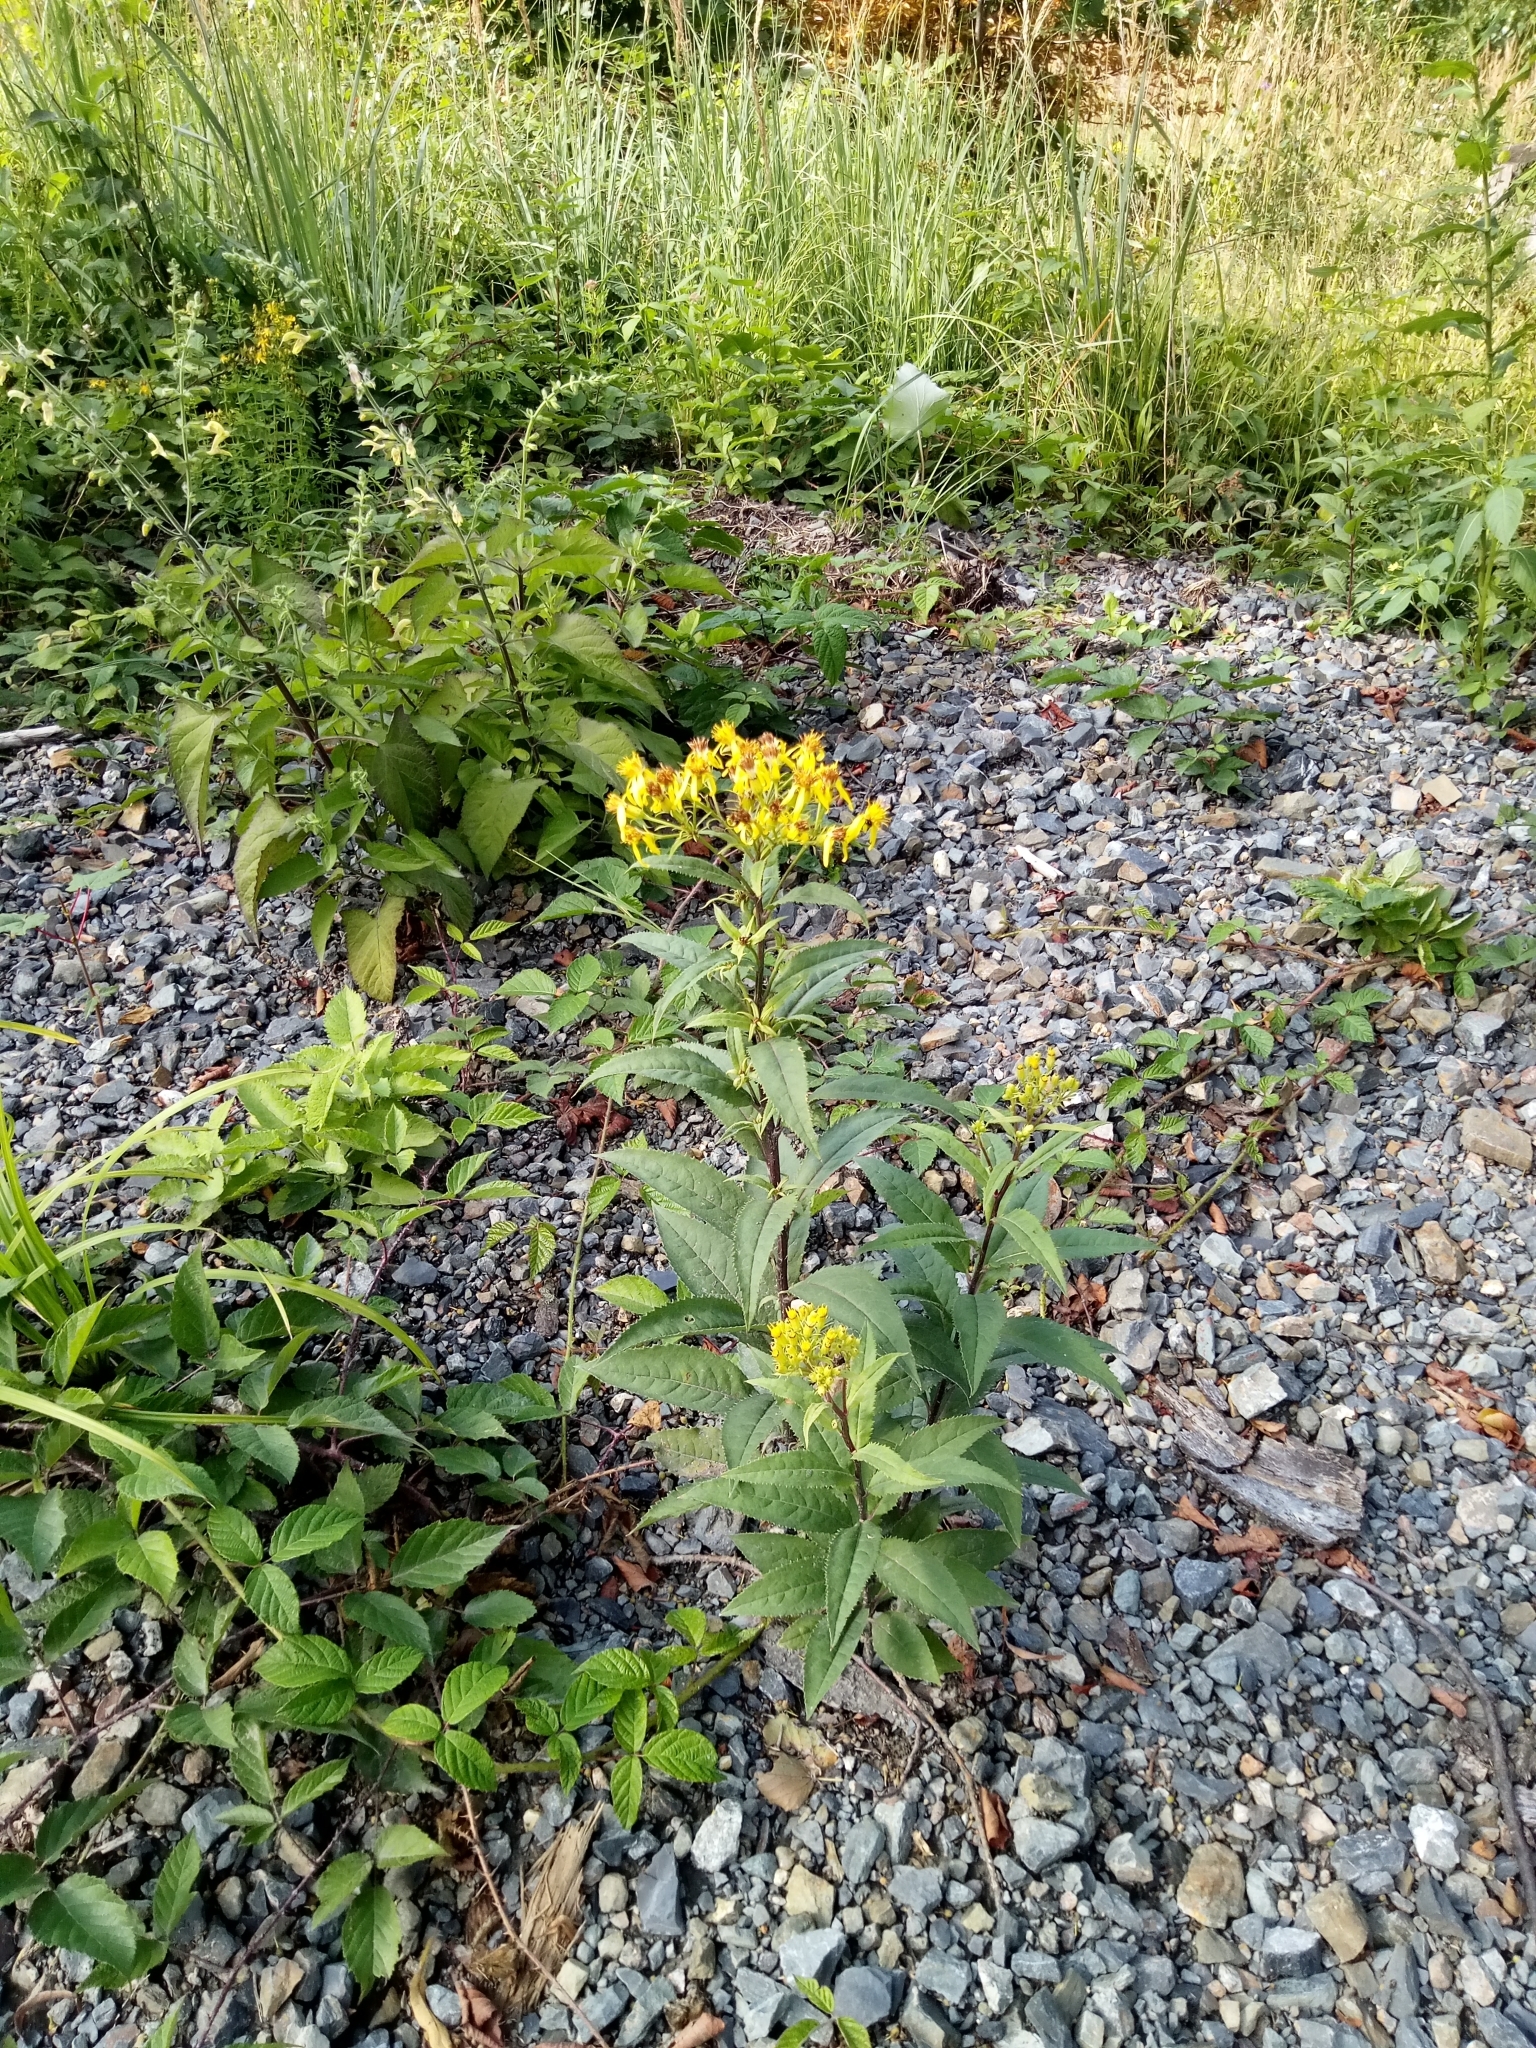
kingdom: Plantae
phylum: Tracheophyta
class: Magnoliopsida
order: Asterales
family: Asteraceae
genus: Senecio
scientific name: Senecio ovatus
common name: Wood ragwort
